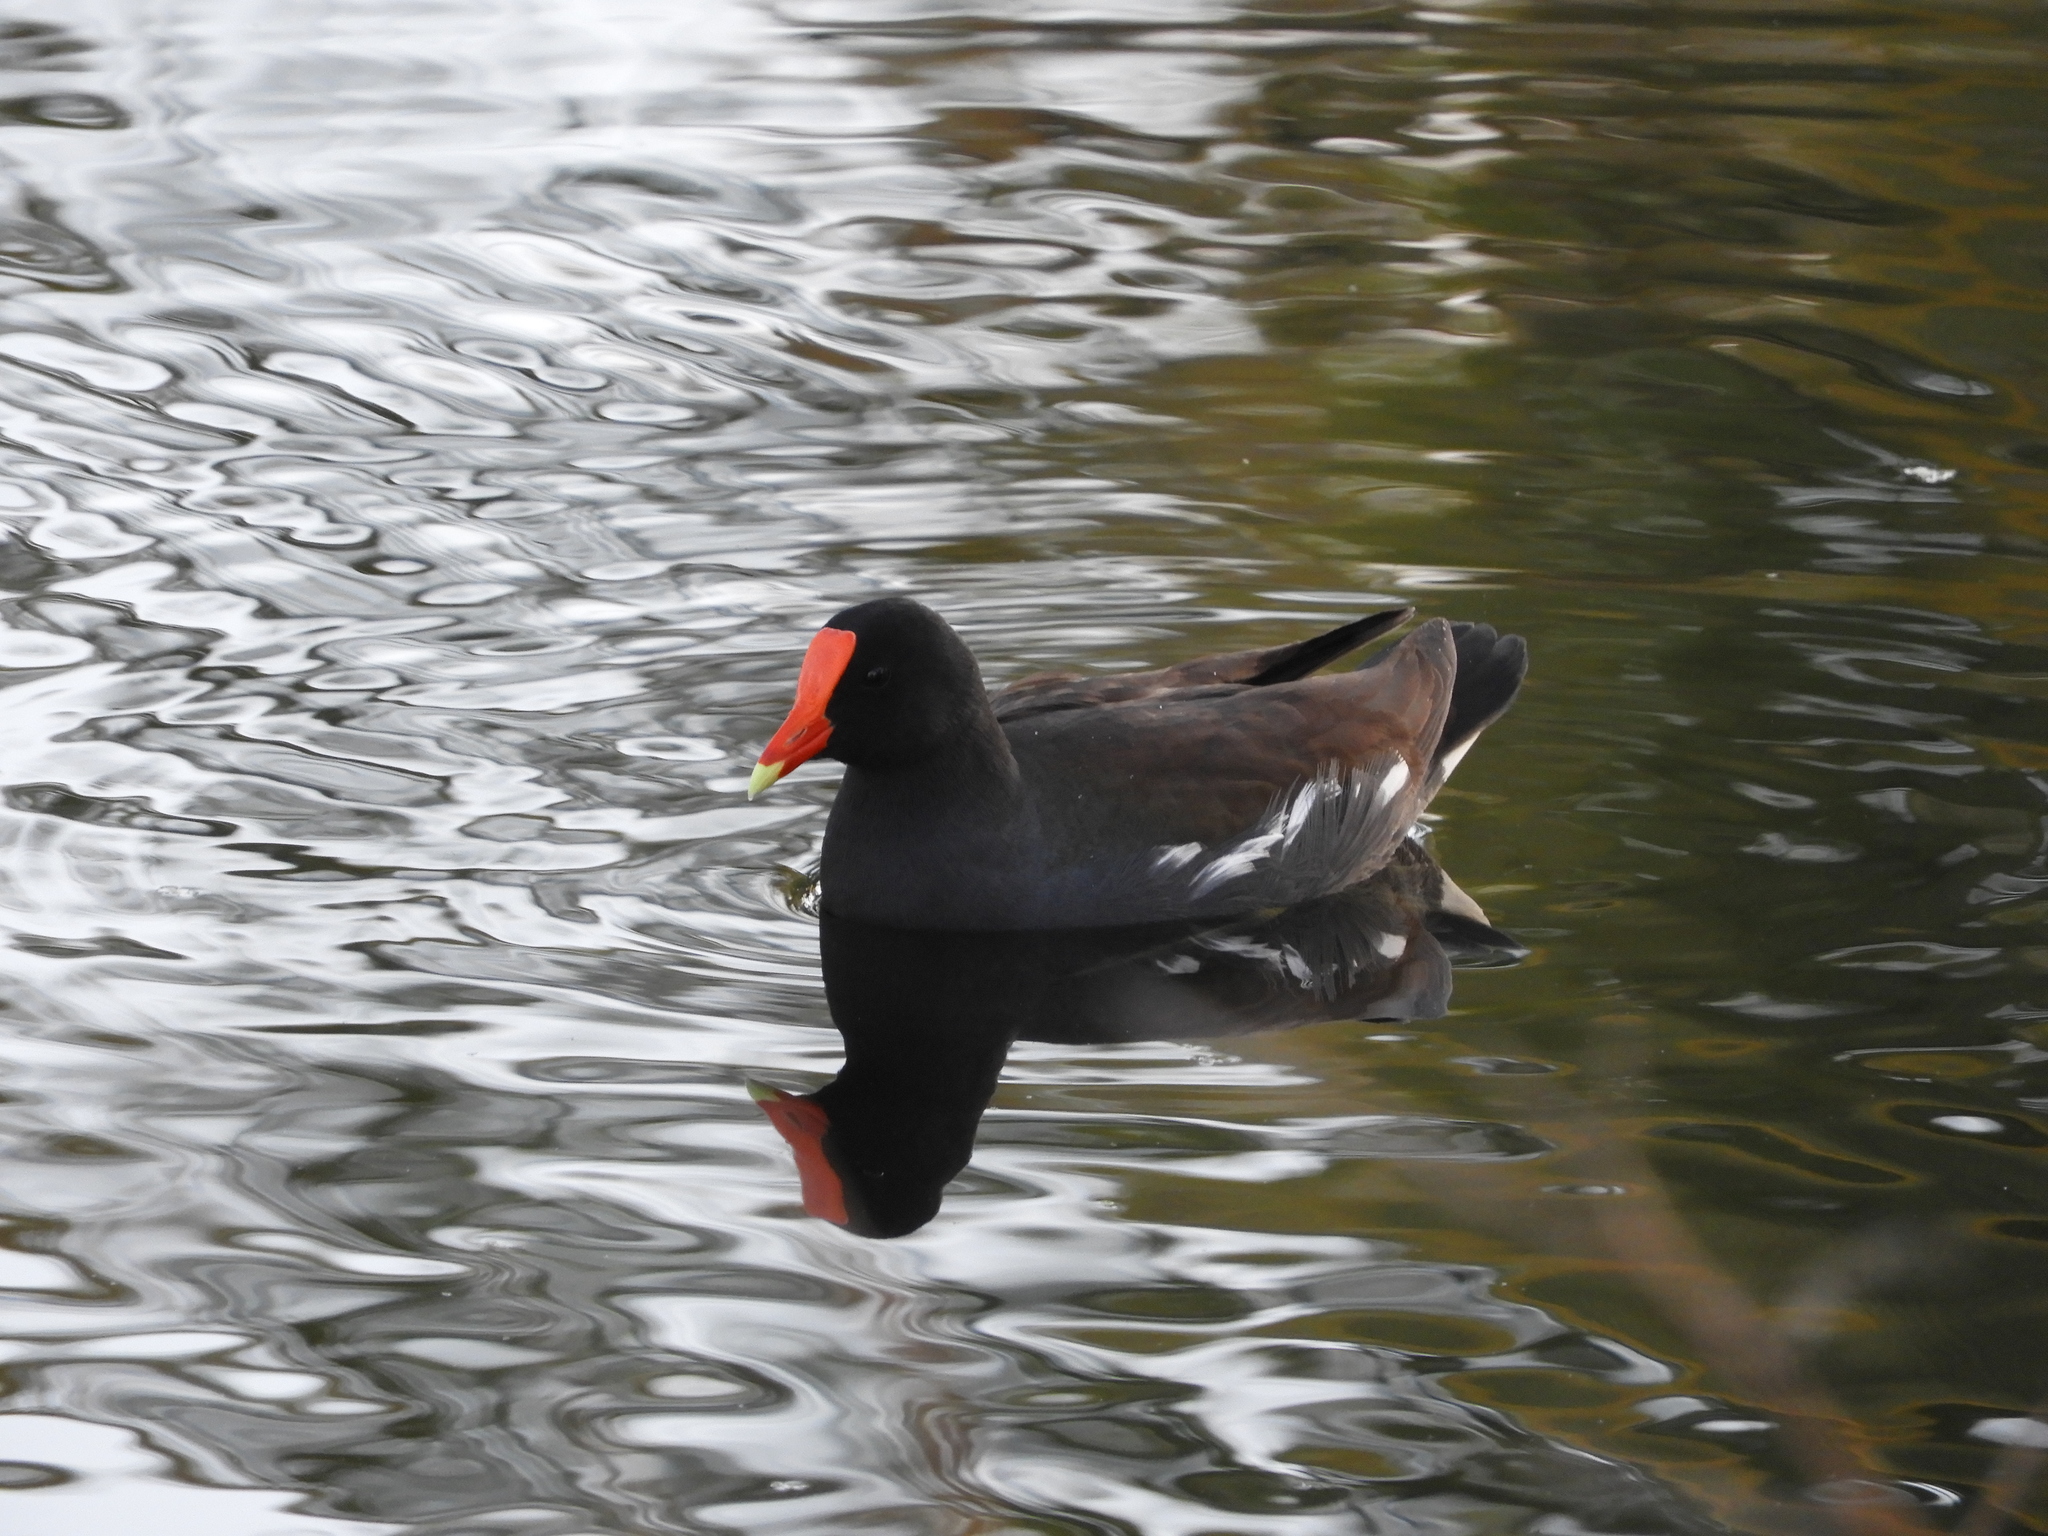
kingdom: Animalia
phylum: Chordata
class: Aves
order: Gruiformes
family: Rallidae
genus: Gallinula
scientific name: Gallinula chloropus
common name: Common moorhen
